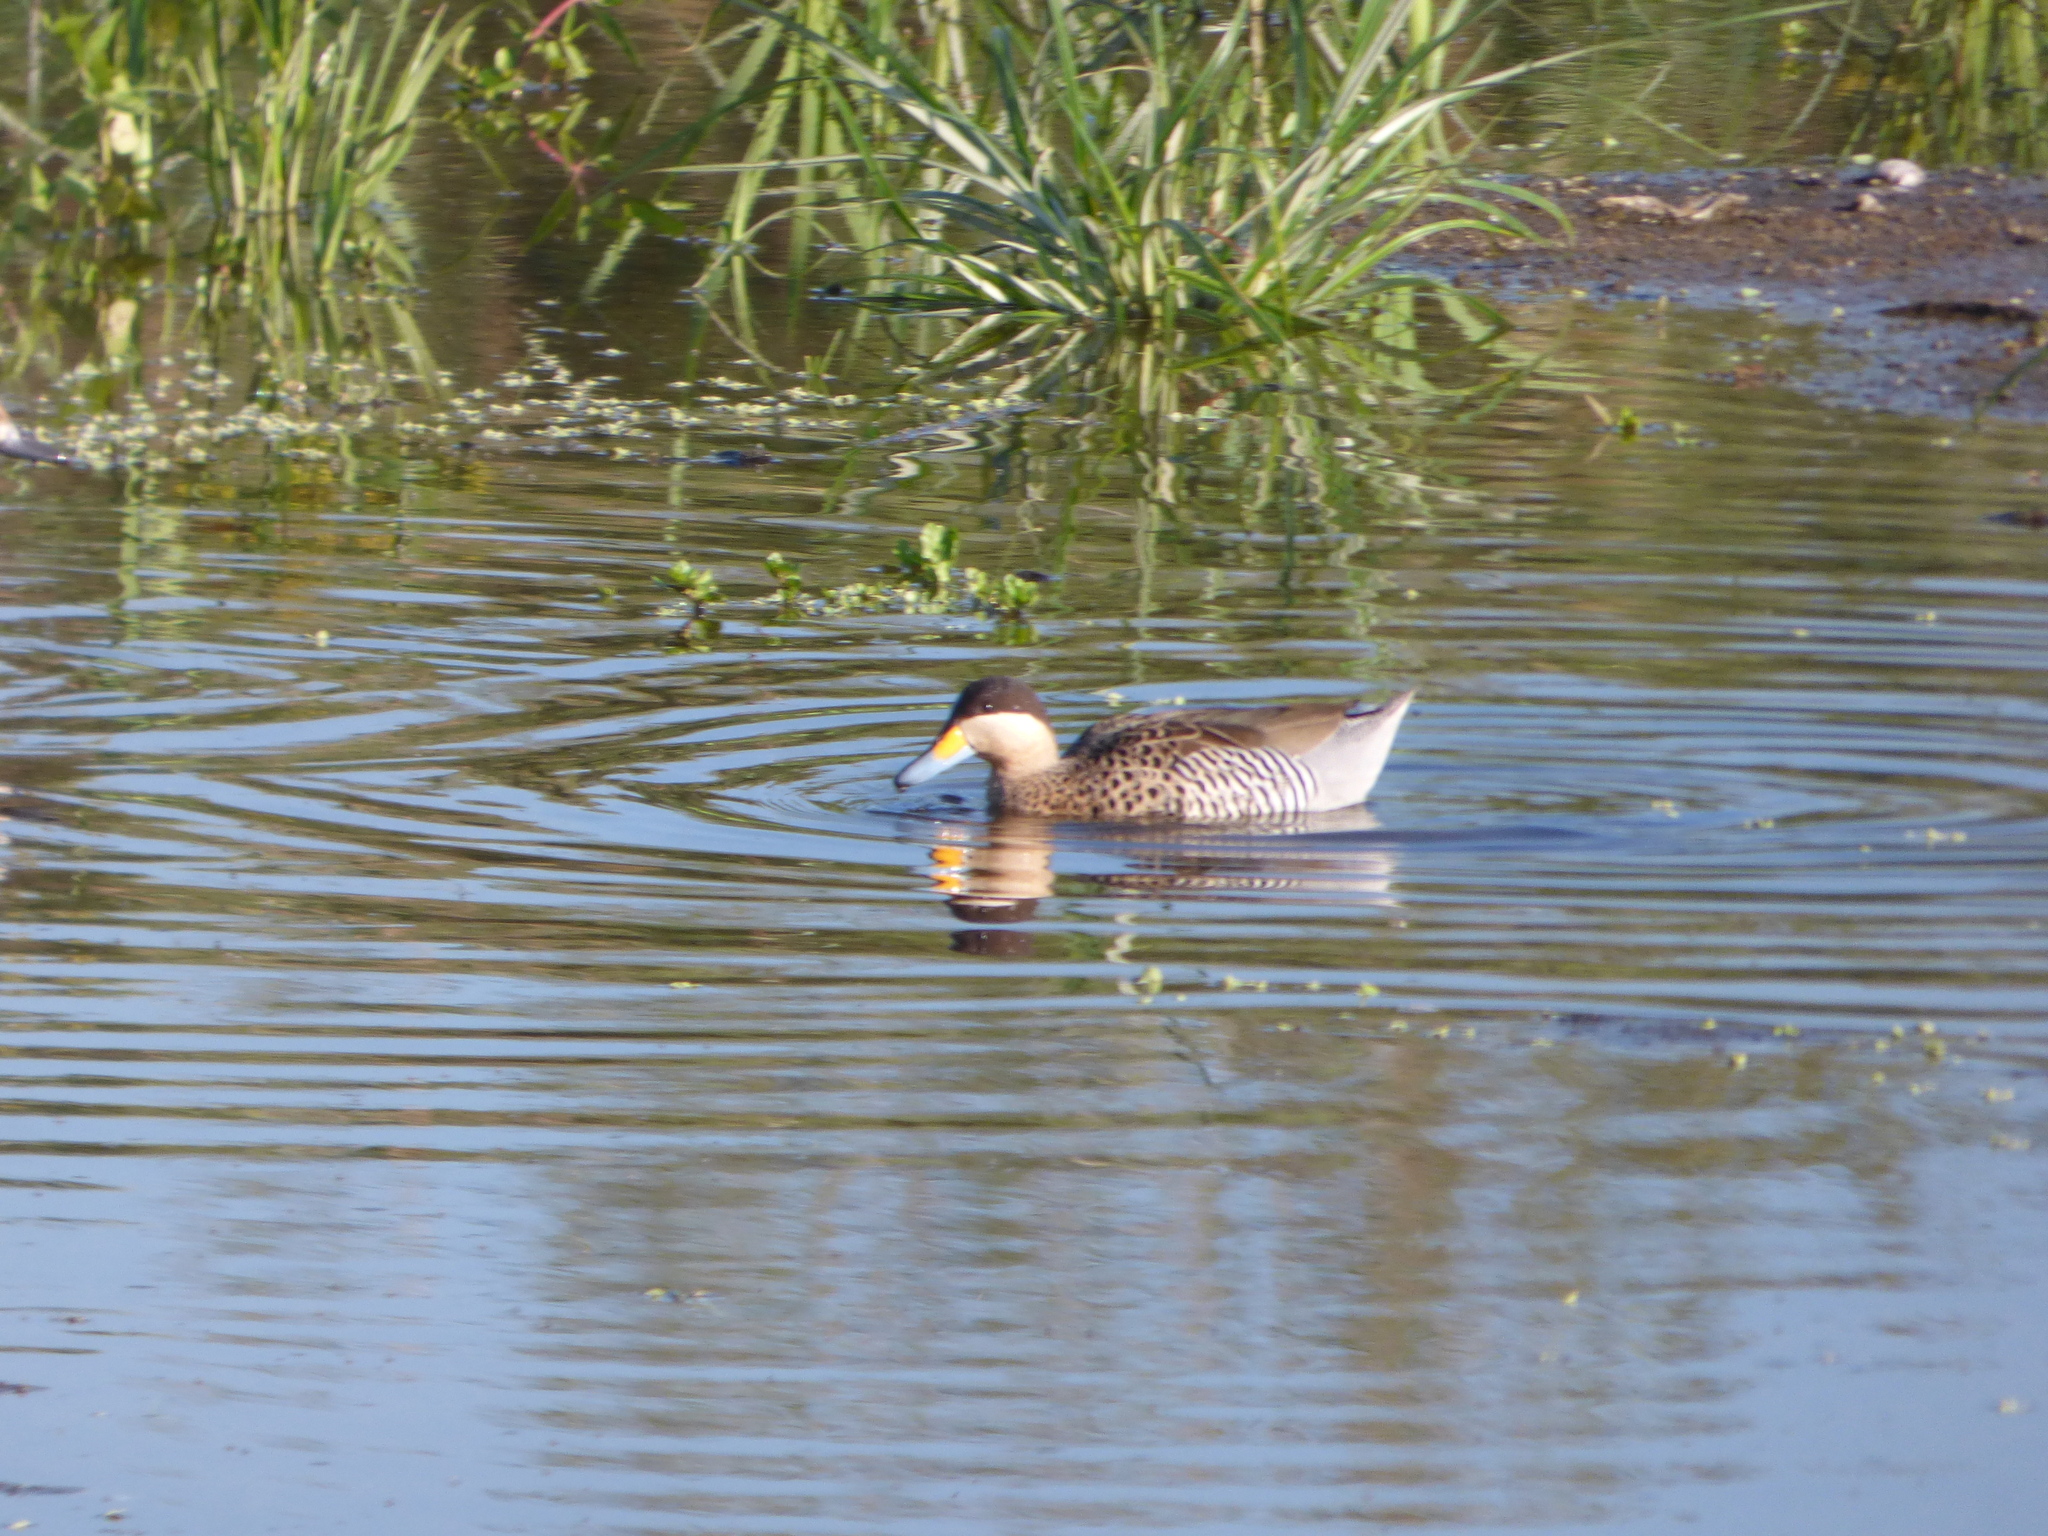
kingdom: Animalia
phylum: Chordata
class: Aves
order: Anseriformes
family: Anatidae
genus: Spatula
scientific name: Spatula versicolor
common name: Silver teal
